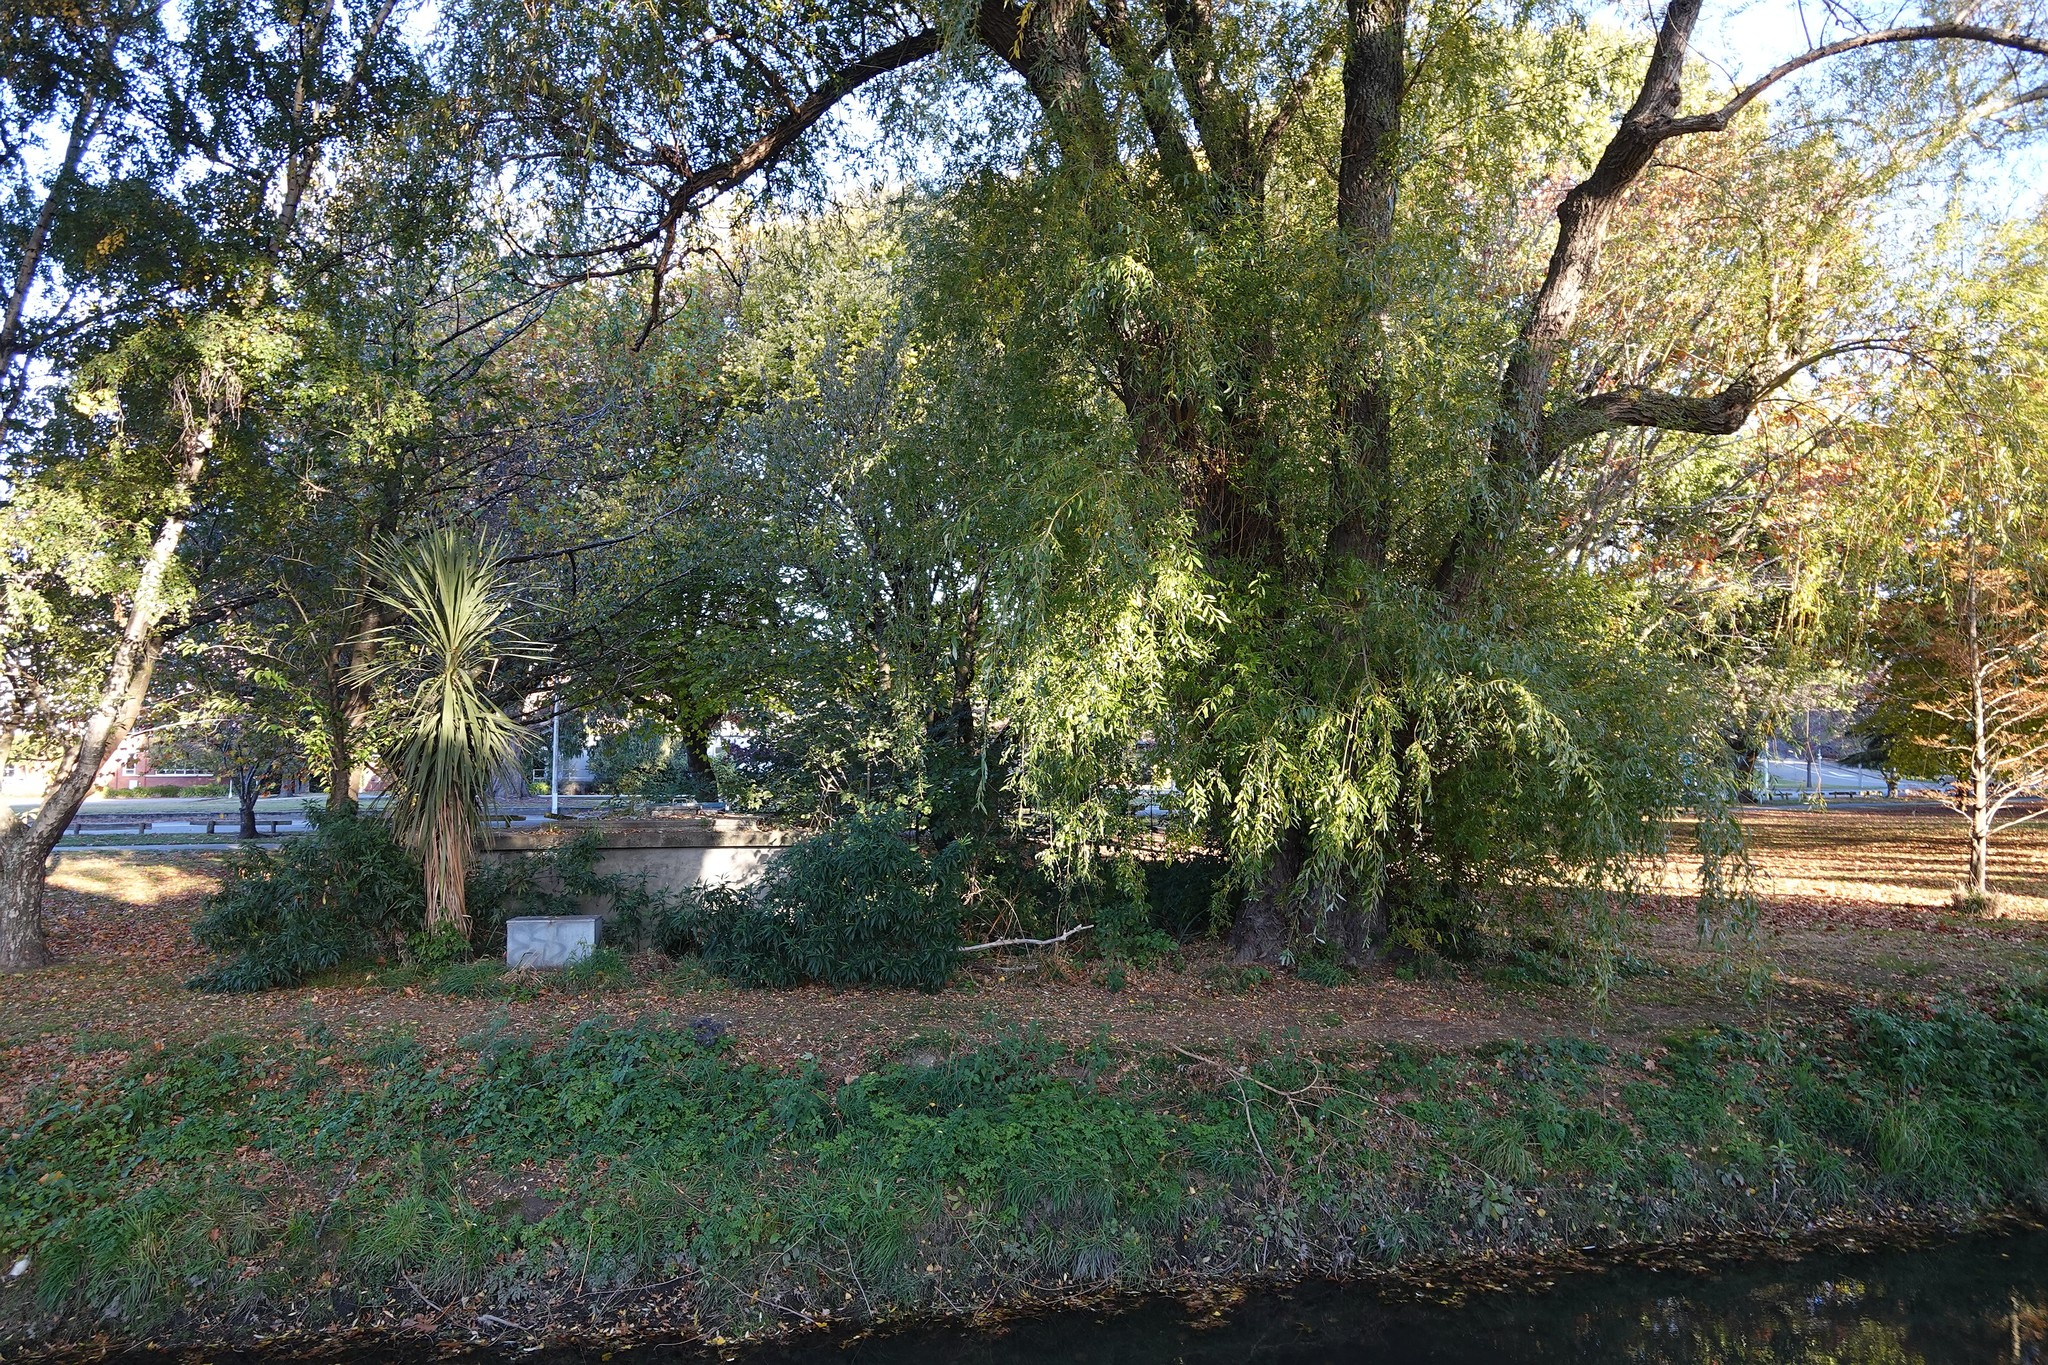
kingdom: Plantae
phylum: Tracheophyta
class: Liliopsida
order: Asparagales
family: Asparagaceae
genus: Cordyline
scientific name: Cordyline australis
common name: Cabbage-palm
